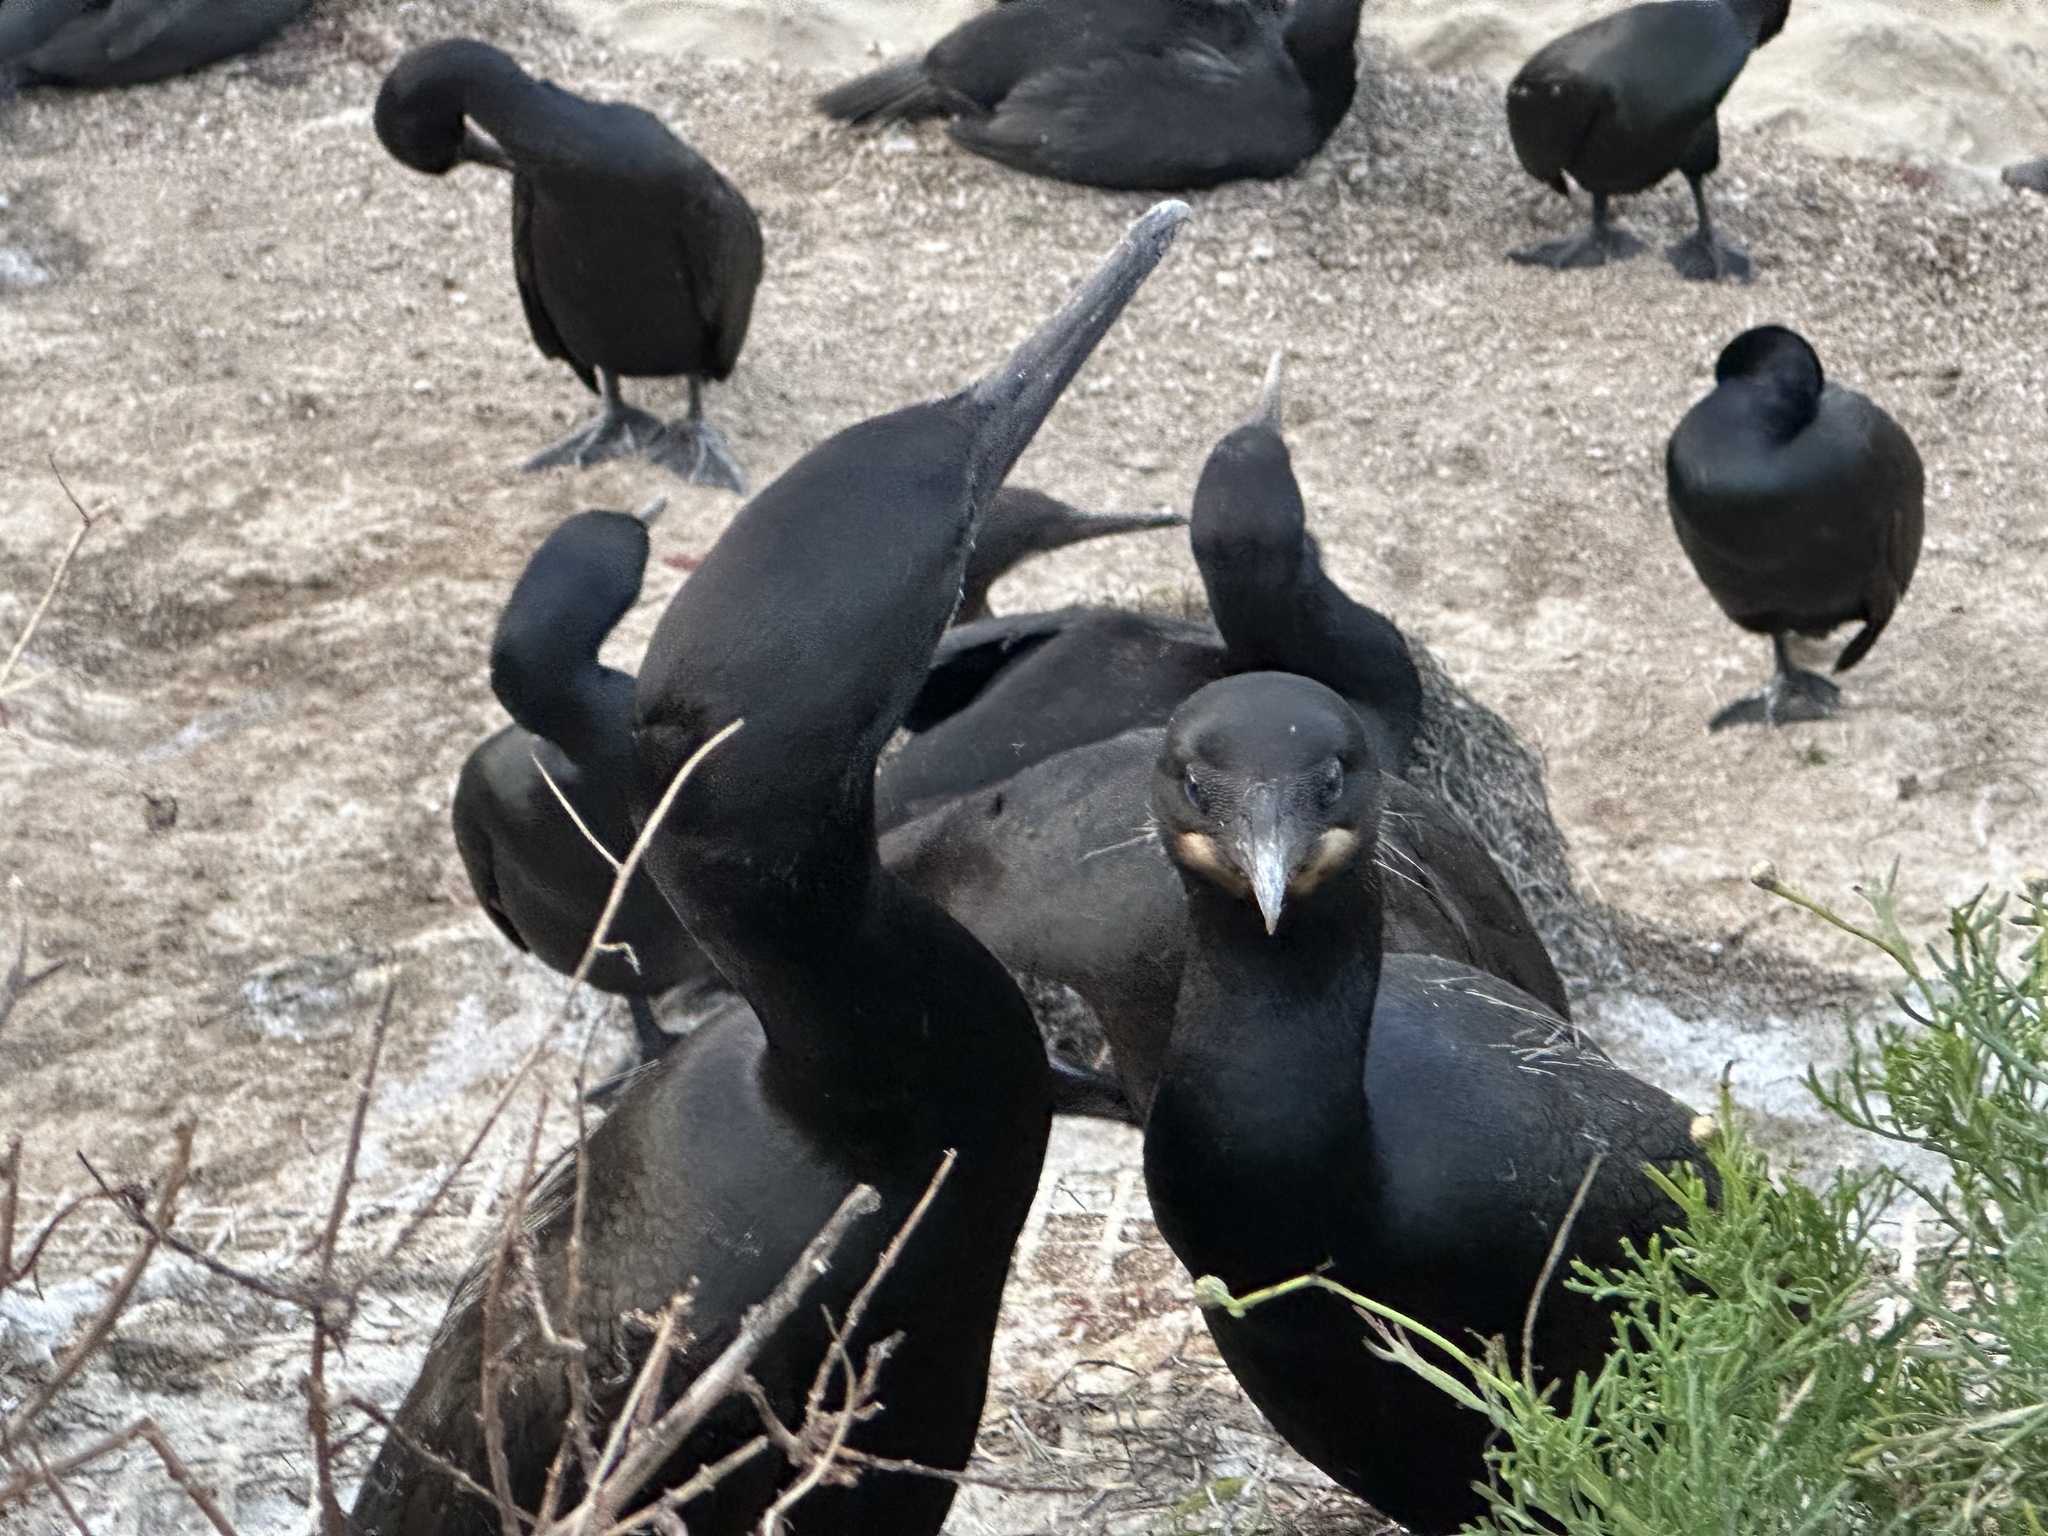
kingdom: Animalia
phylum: Chordata
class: Aves
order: Suliformes
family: Phalacrocoracidae
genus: Urile
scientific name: Urile penicillatus
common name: Brandt's cormorant
